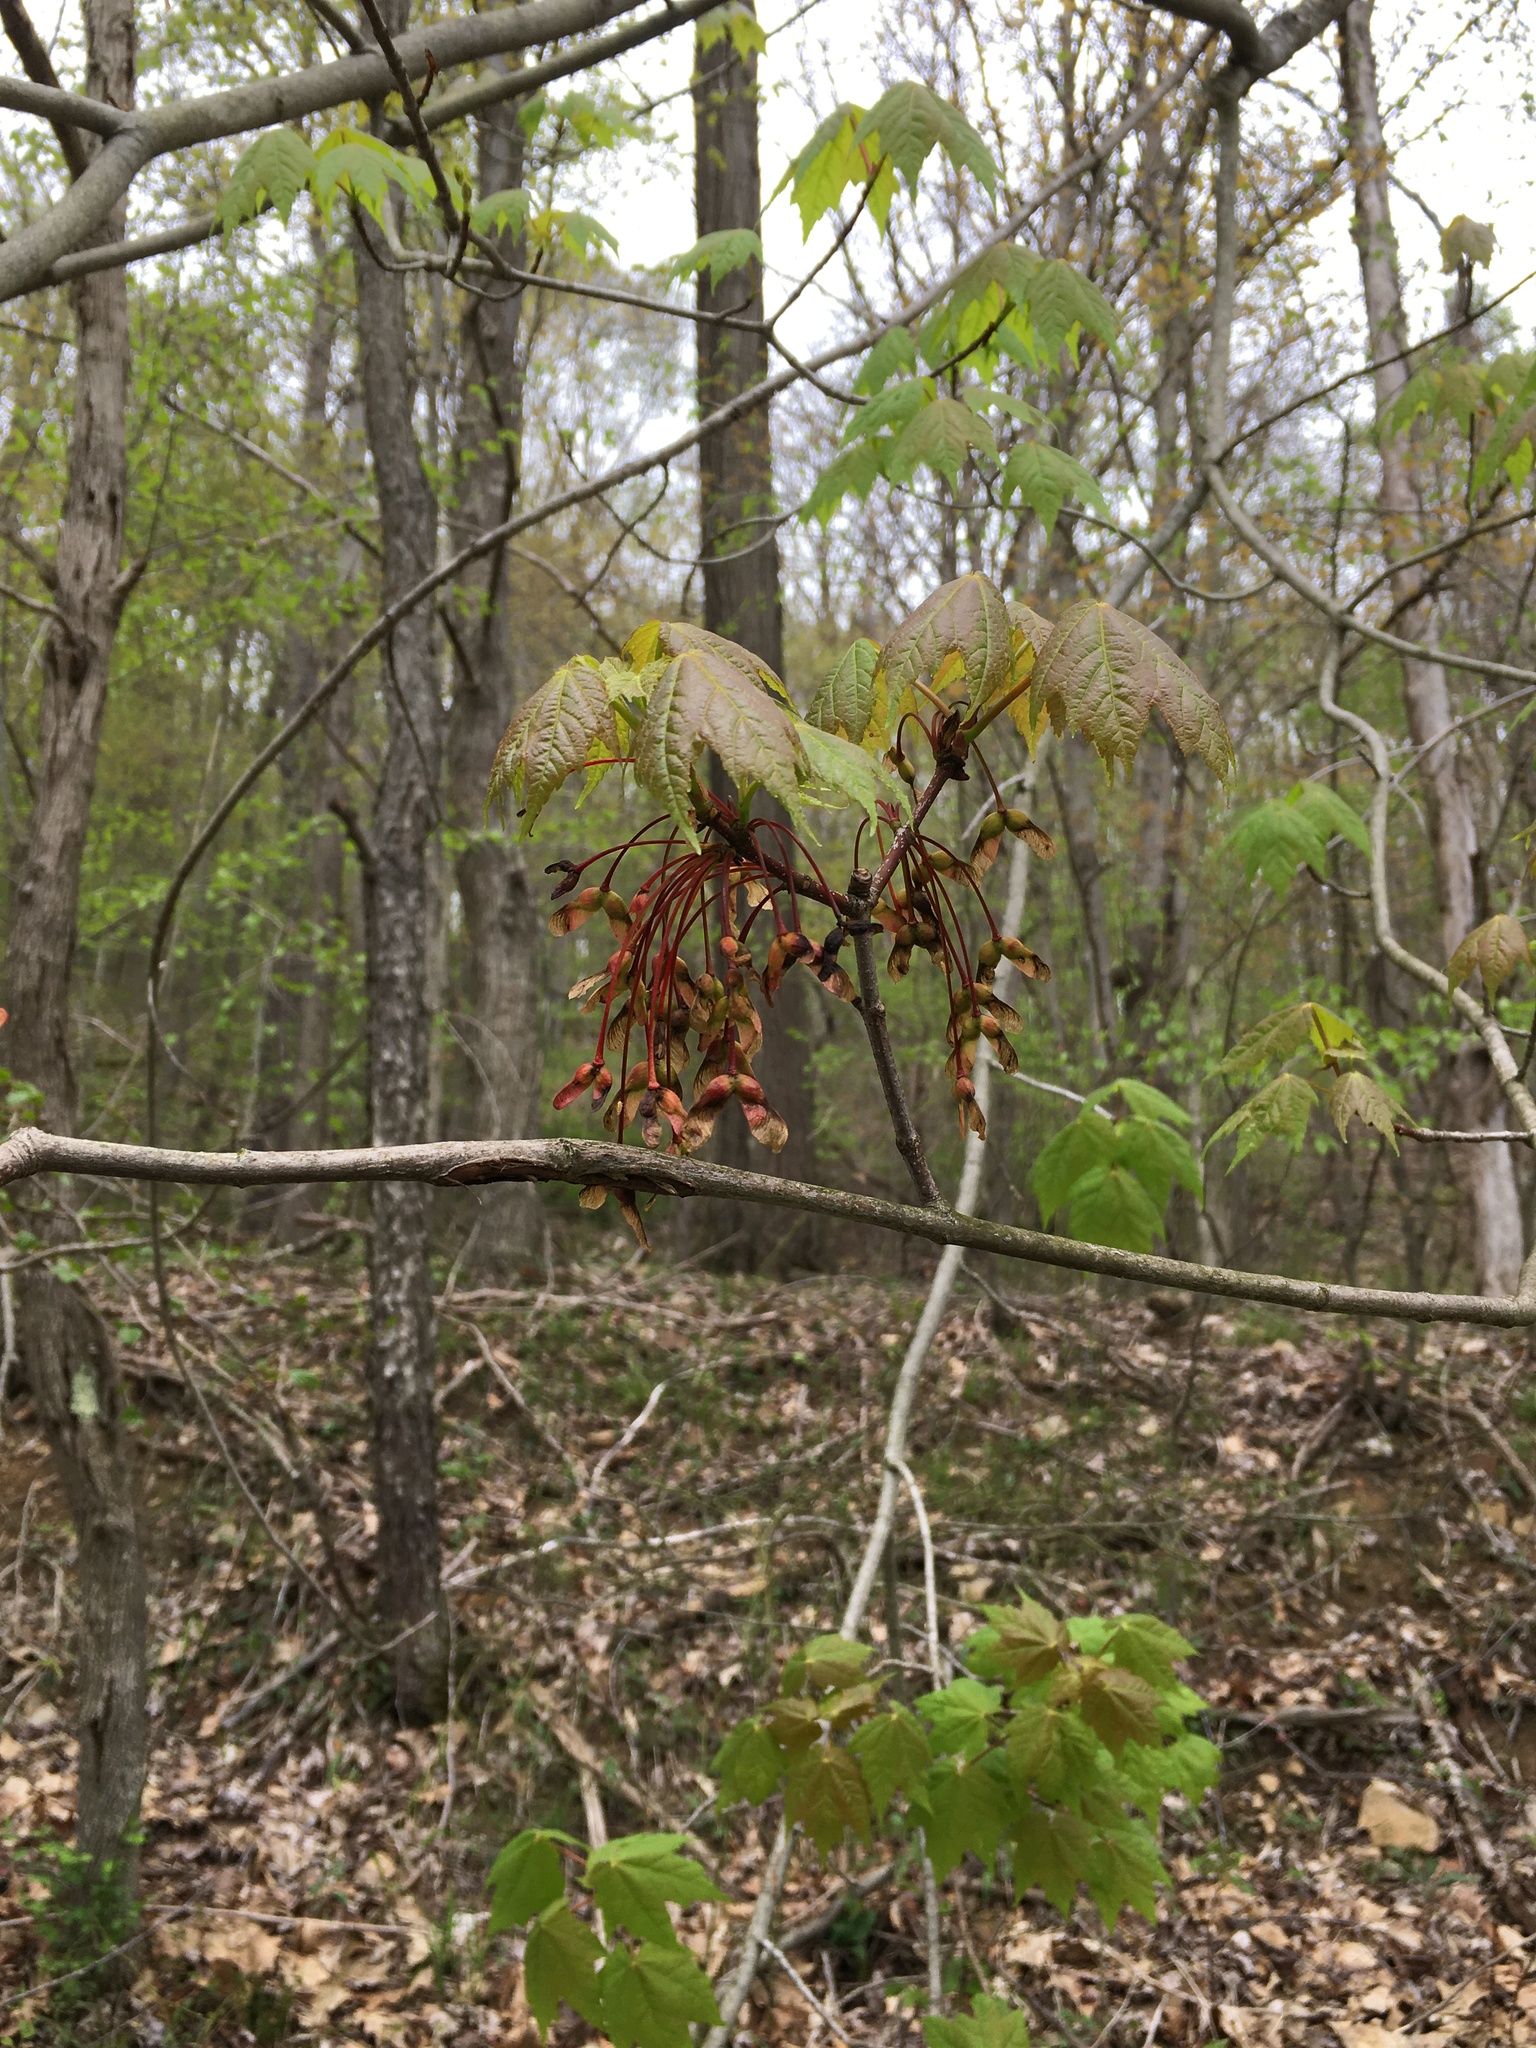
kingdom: Plantae
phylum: Tracheophyta
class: Magnoliopsida
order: Sapindales
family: Sapindaceae
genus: Acer
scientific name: Acer rubrum
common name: Red maple
